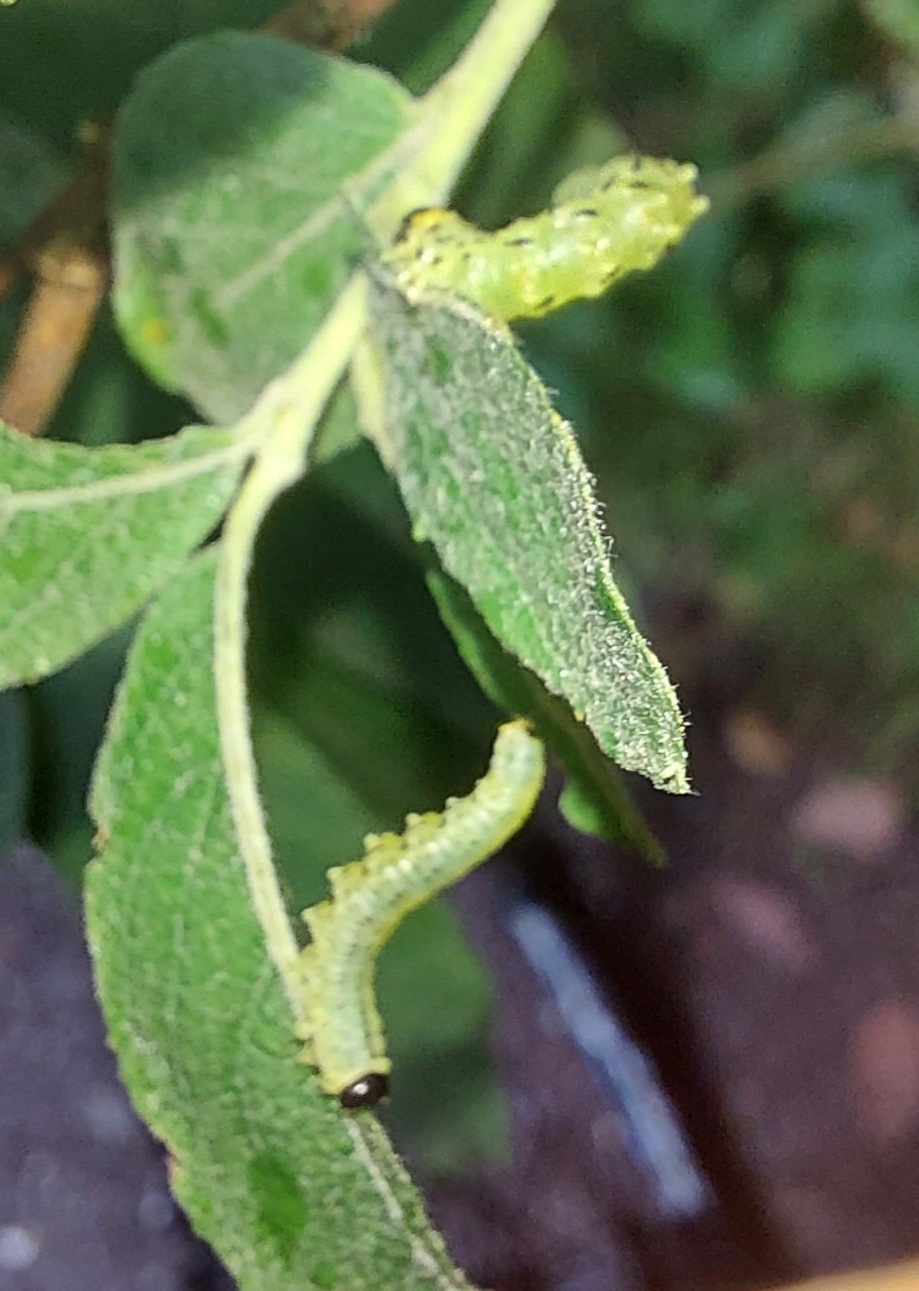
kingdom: Animalia
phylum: Arthropoda
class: Insecta
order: Hymenoptera
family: Tenthredinidae
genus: Nematus
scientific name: Nematus papillosus
